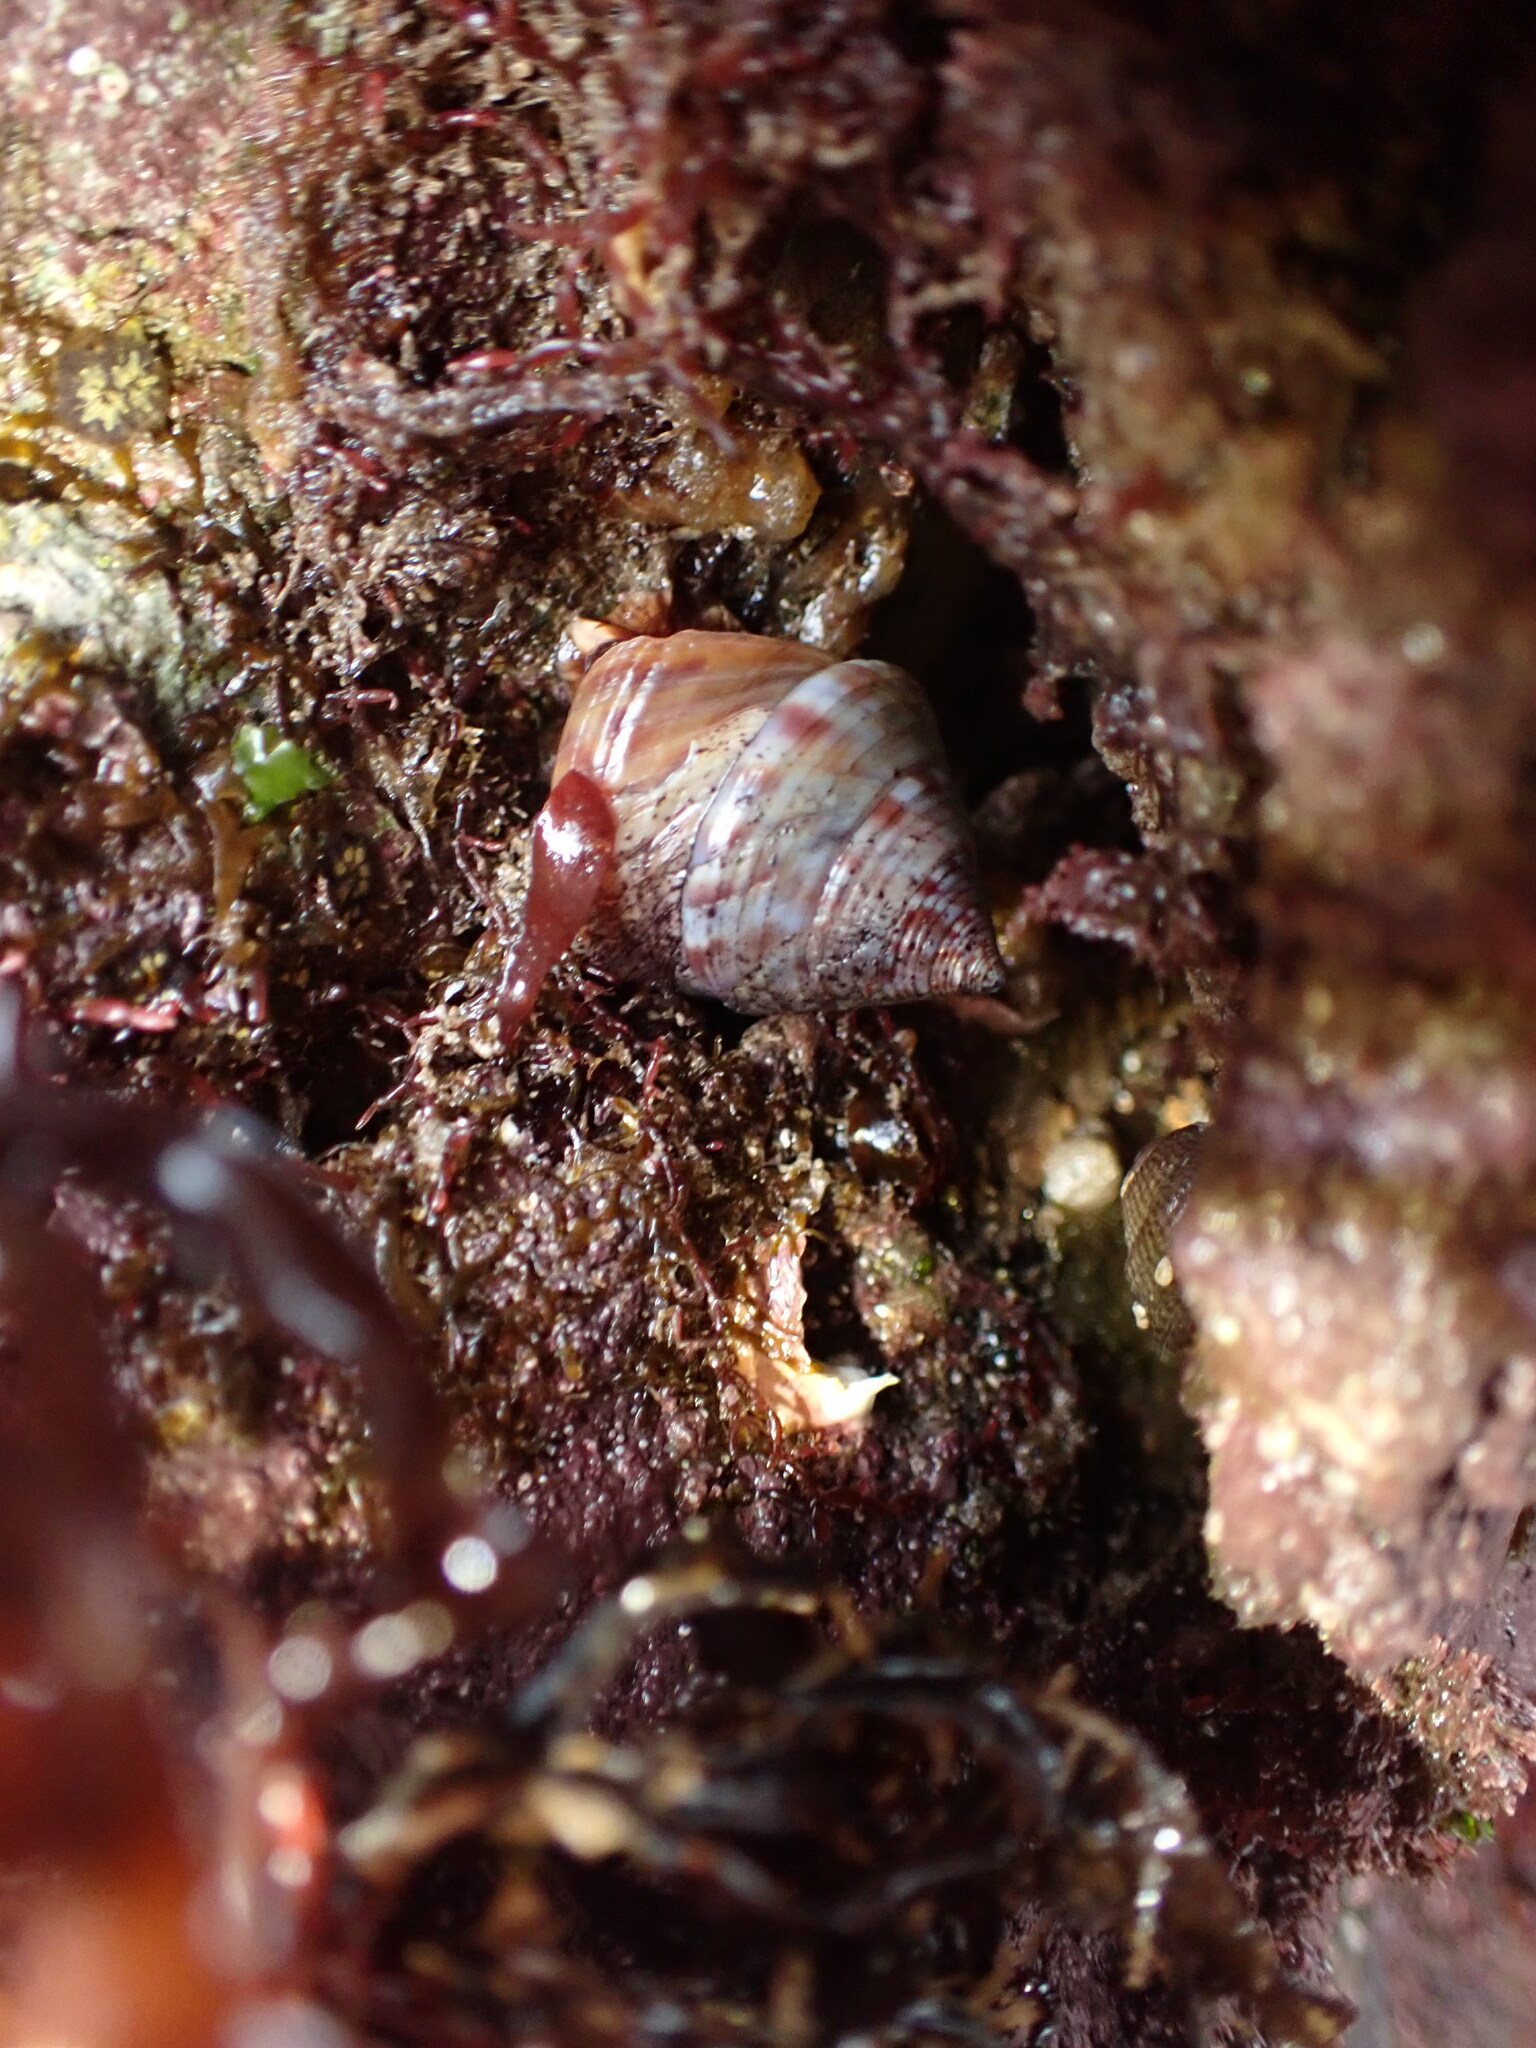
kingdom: Animalia
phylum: Mollusca
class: Gastropoda
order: Trochida
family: Calliostomatidae
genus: Calliostoma
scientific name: Calliostoma zizyphinum
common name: Painted top shell
